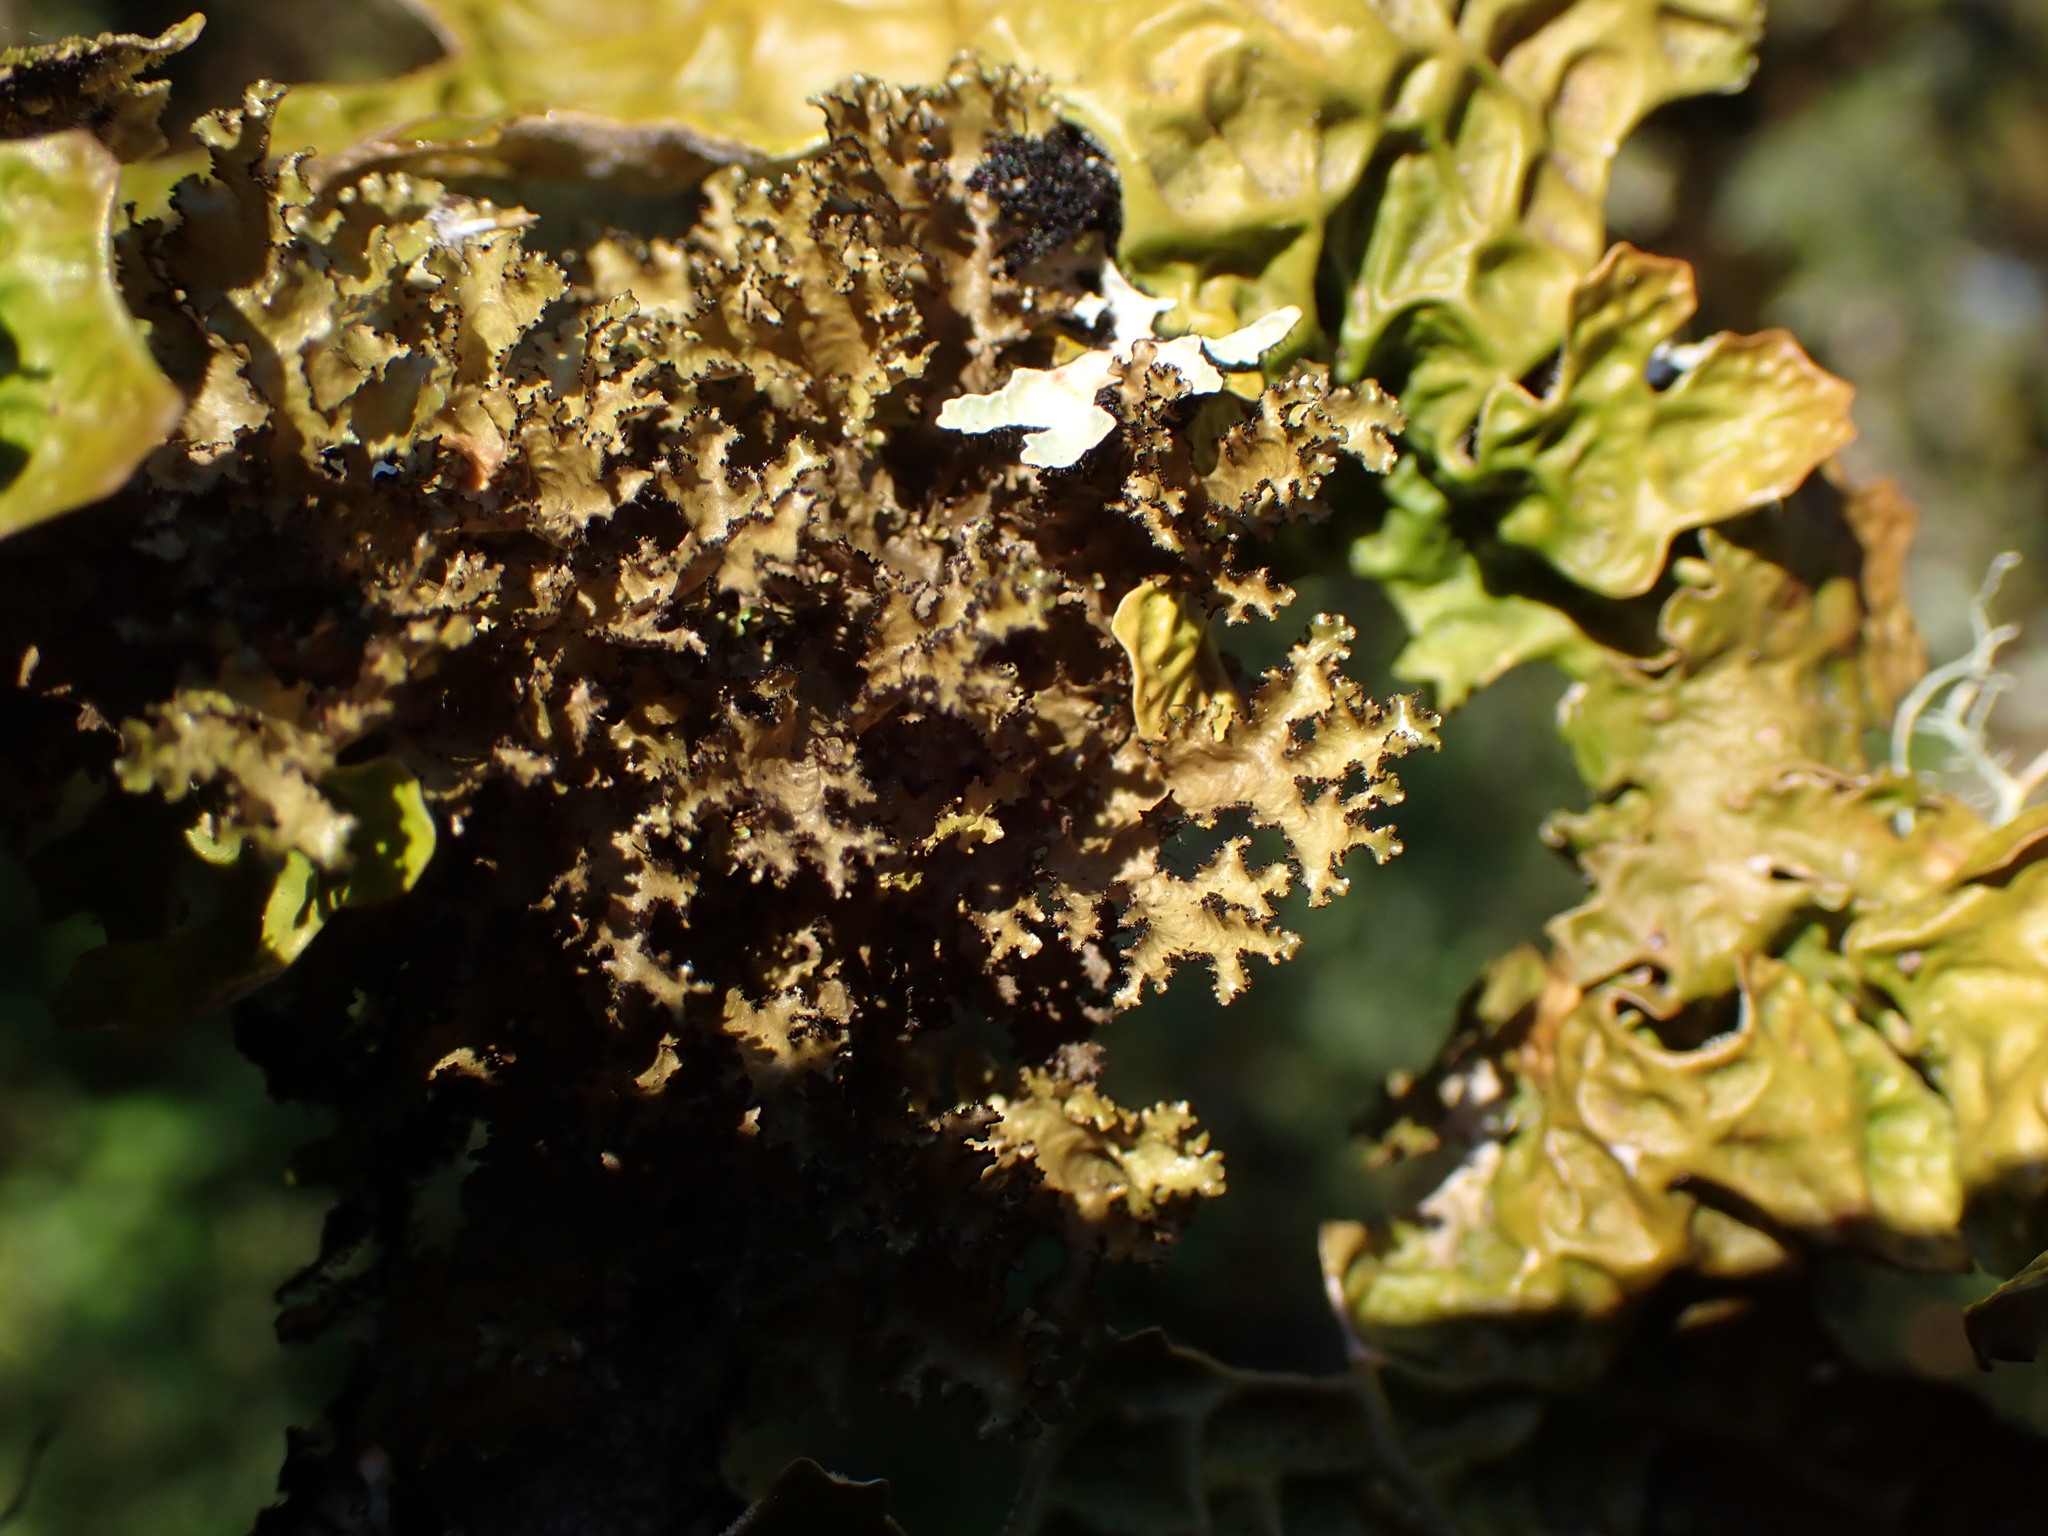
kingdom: Fungi
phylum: Ascomycota
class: Lecanoromycetes
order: Lecanorales
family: Parmeliaceae
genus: Nephromopsis
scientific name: Nephromopsis orbata
